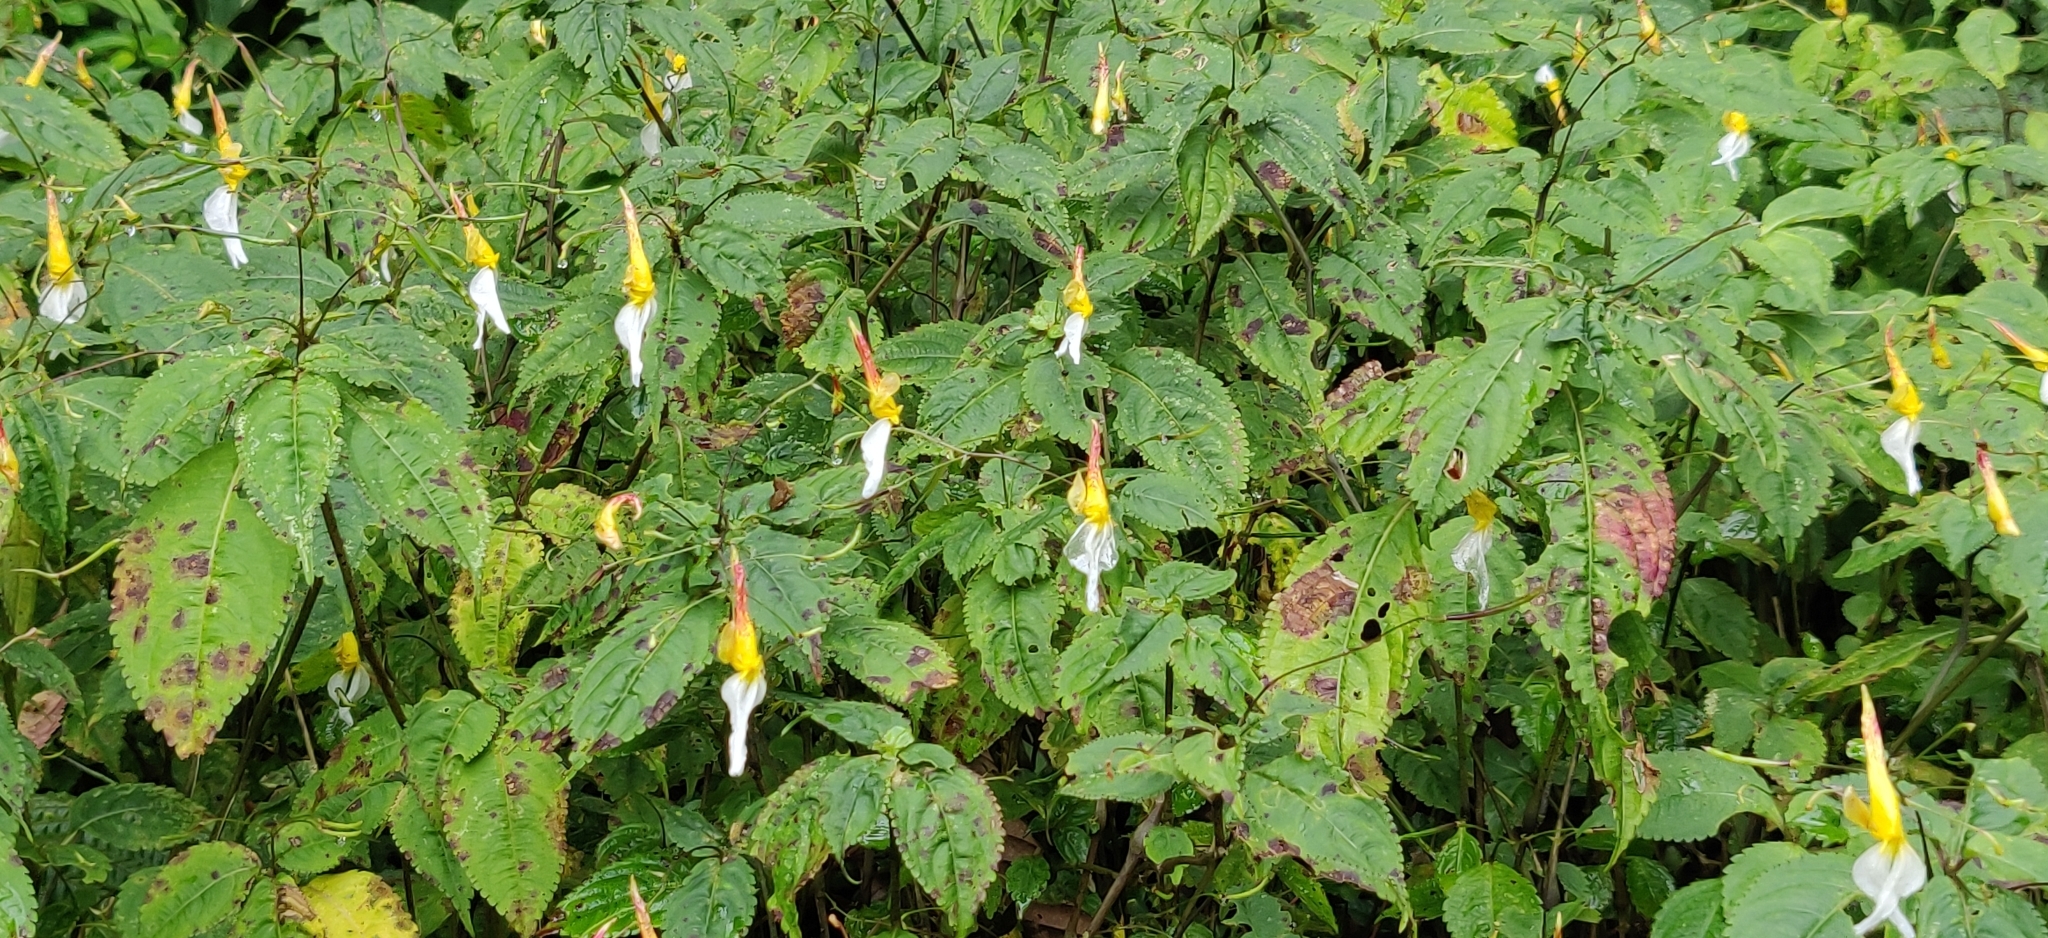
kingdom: Plantae
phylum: Tracheophyta
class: Magnoliopsida
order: Ericales
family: Balsaminaceae
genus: Impatiens
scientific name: Impatiens albopetala
